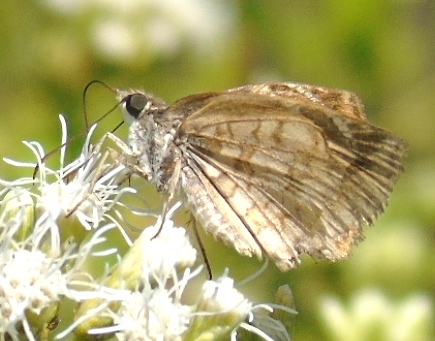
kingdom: Animalia
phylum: Arthropoda
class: Insecta
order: Lepidoptera
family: Hesperiidae
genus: Zopyrion
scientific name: Zopyrion sandace
